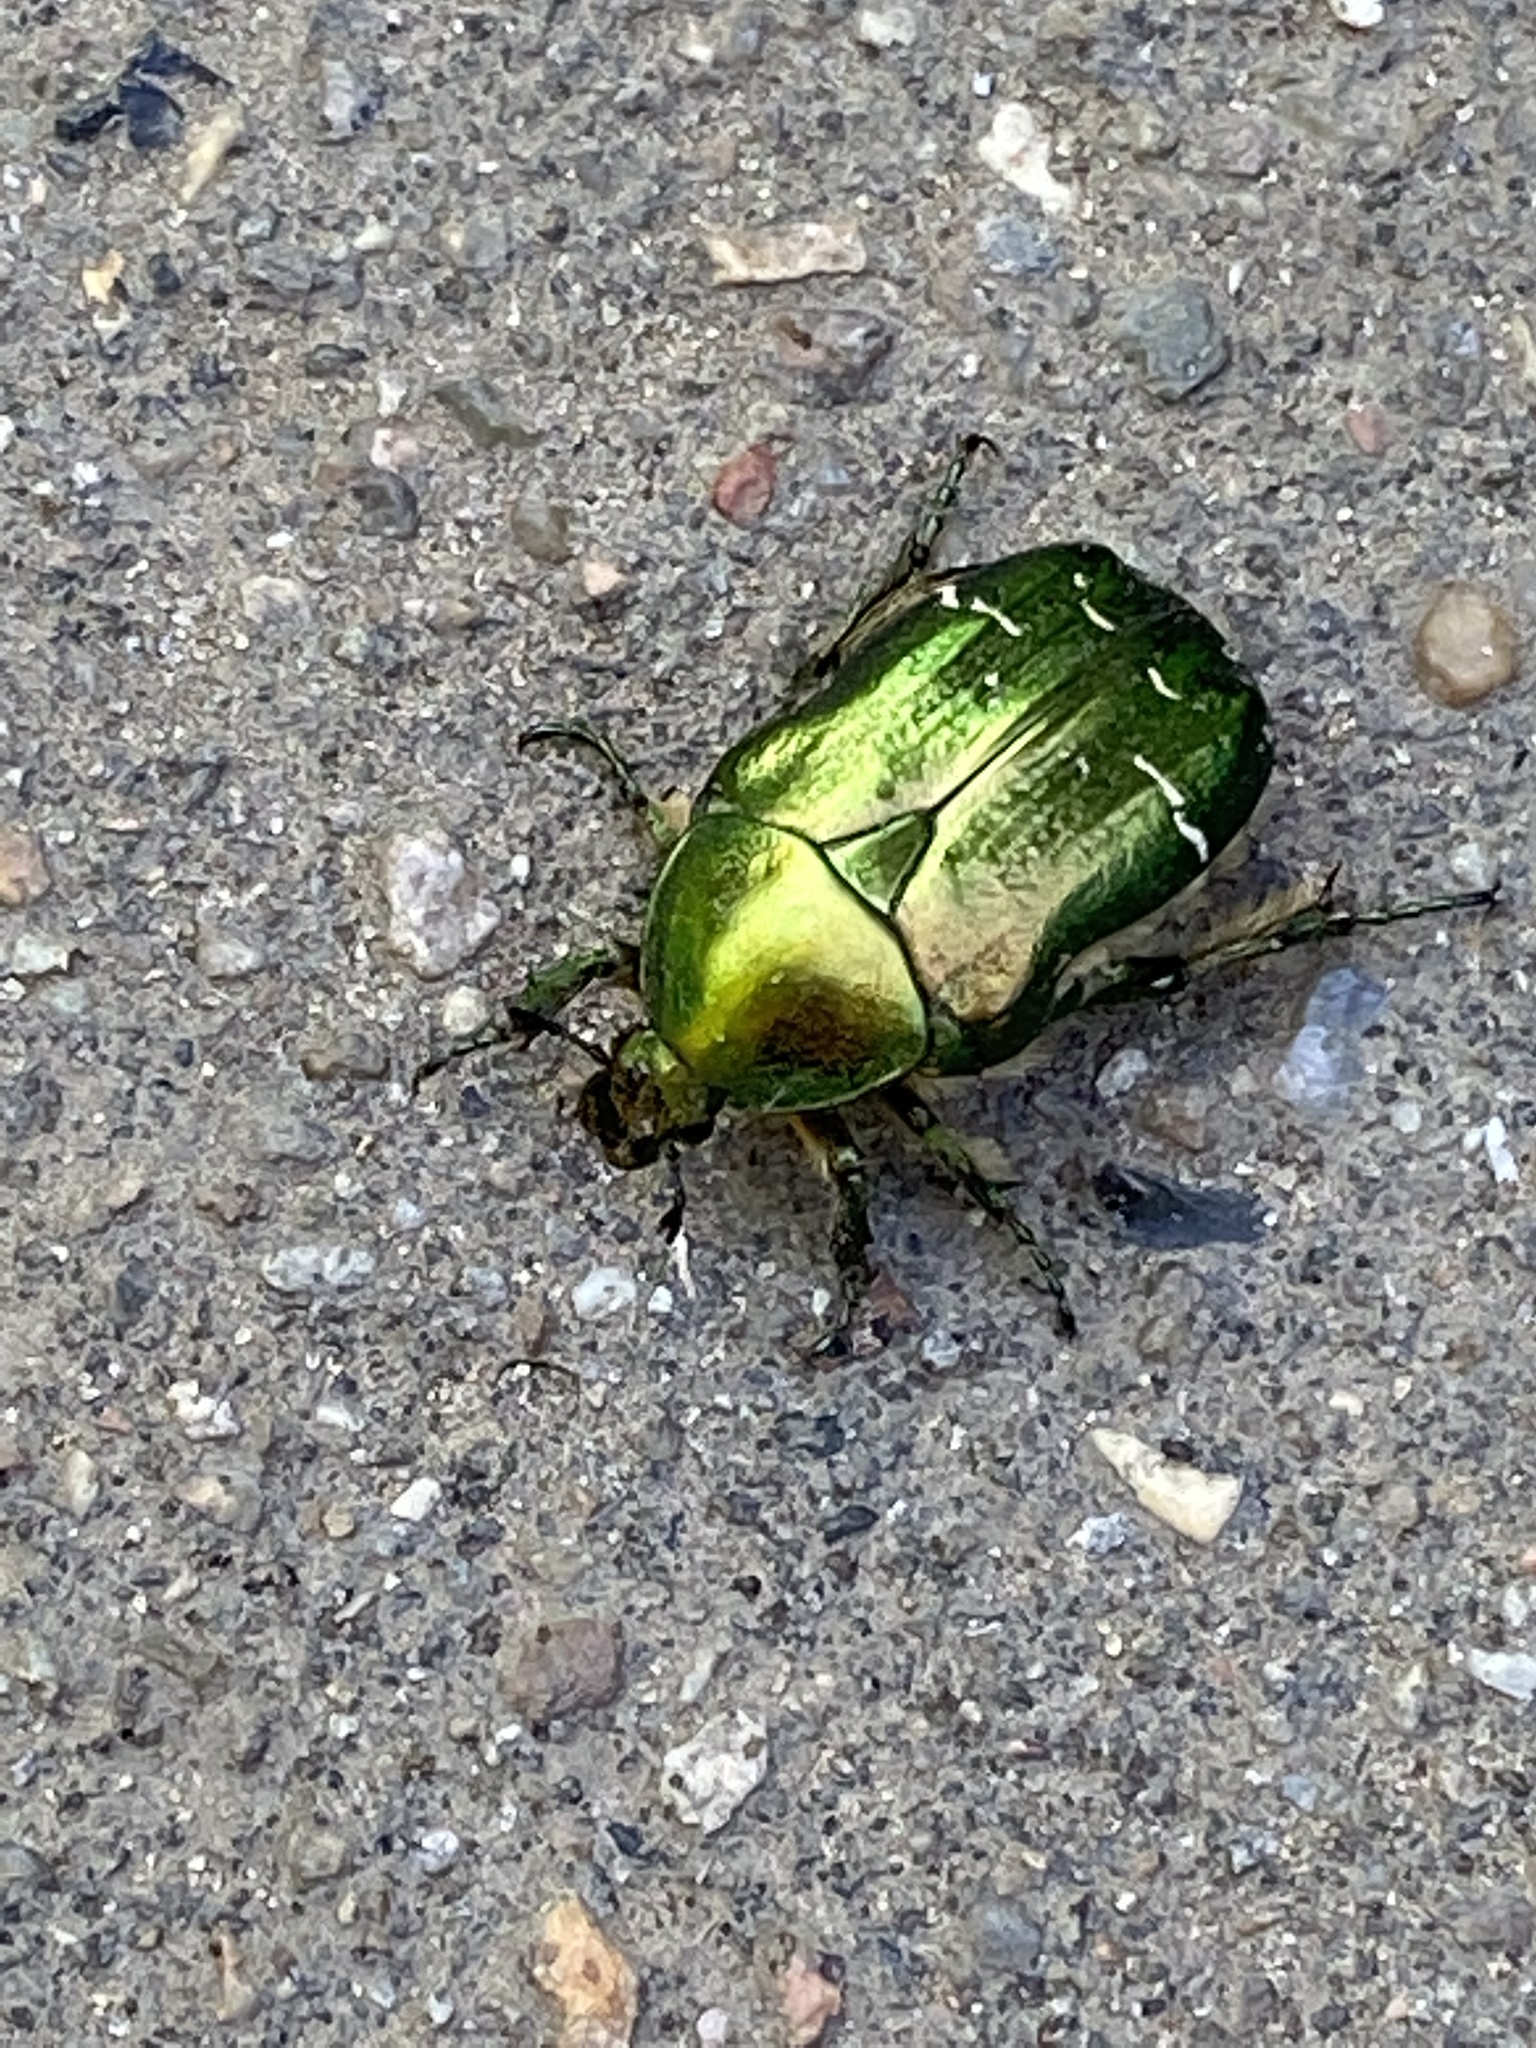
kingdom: Animalia
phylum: Arthropoda
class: Insecta
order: Coleoptera
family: Scarabaeidae
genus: Cetonia
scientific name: Cetonia aurata
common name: Rose chafer
